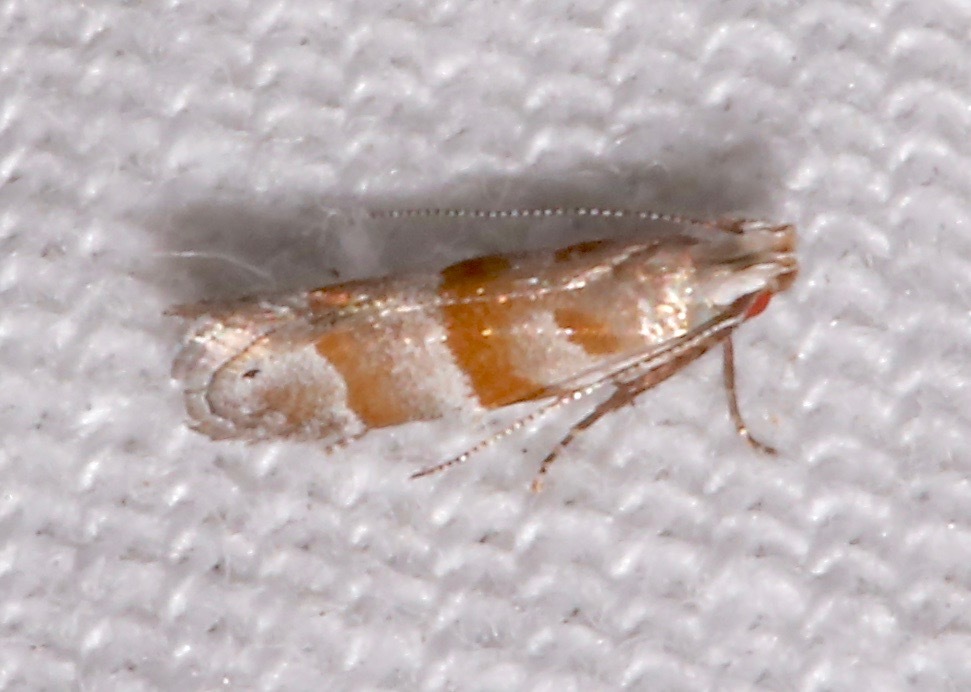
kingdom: Animalia
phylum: Arthropoda
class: Insecta
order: Lepidoptera
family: Gelechiidae
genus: Battaristis
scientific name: Battaristis vittella
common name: Orange stripe-backed moth
